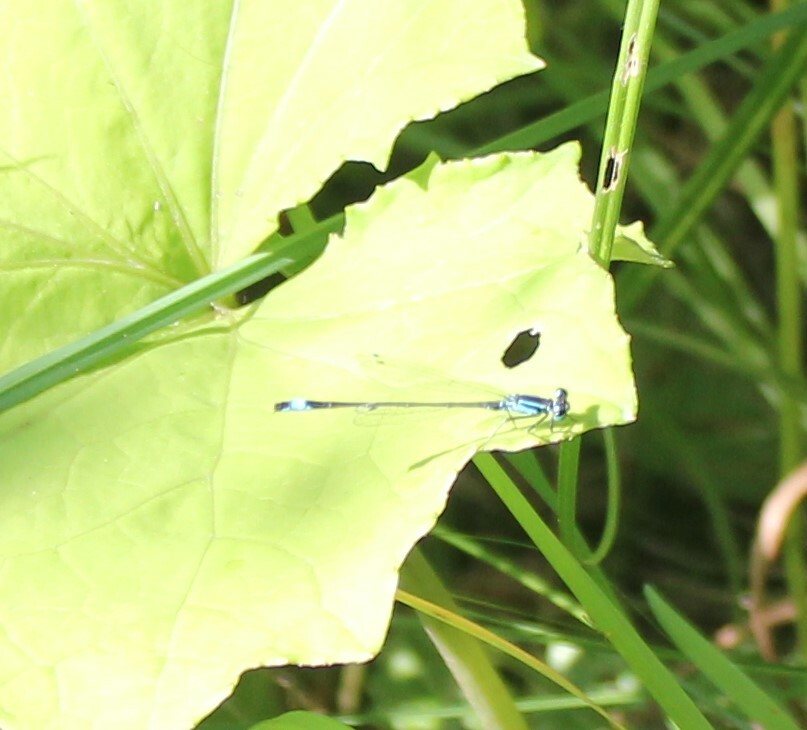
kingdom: Animalia
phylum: Arthropoda
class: Insecta
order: Odonata
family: Coenagrionidae
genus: Ischnura
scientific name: Ischnura elegans
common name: Blue-tailed damselfly
